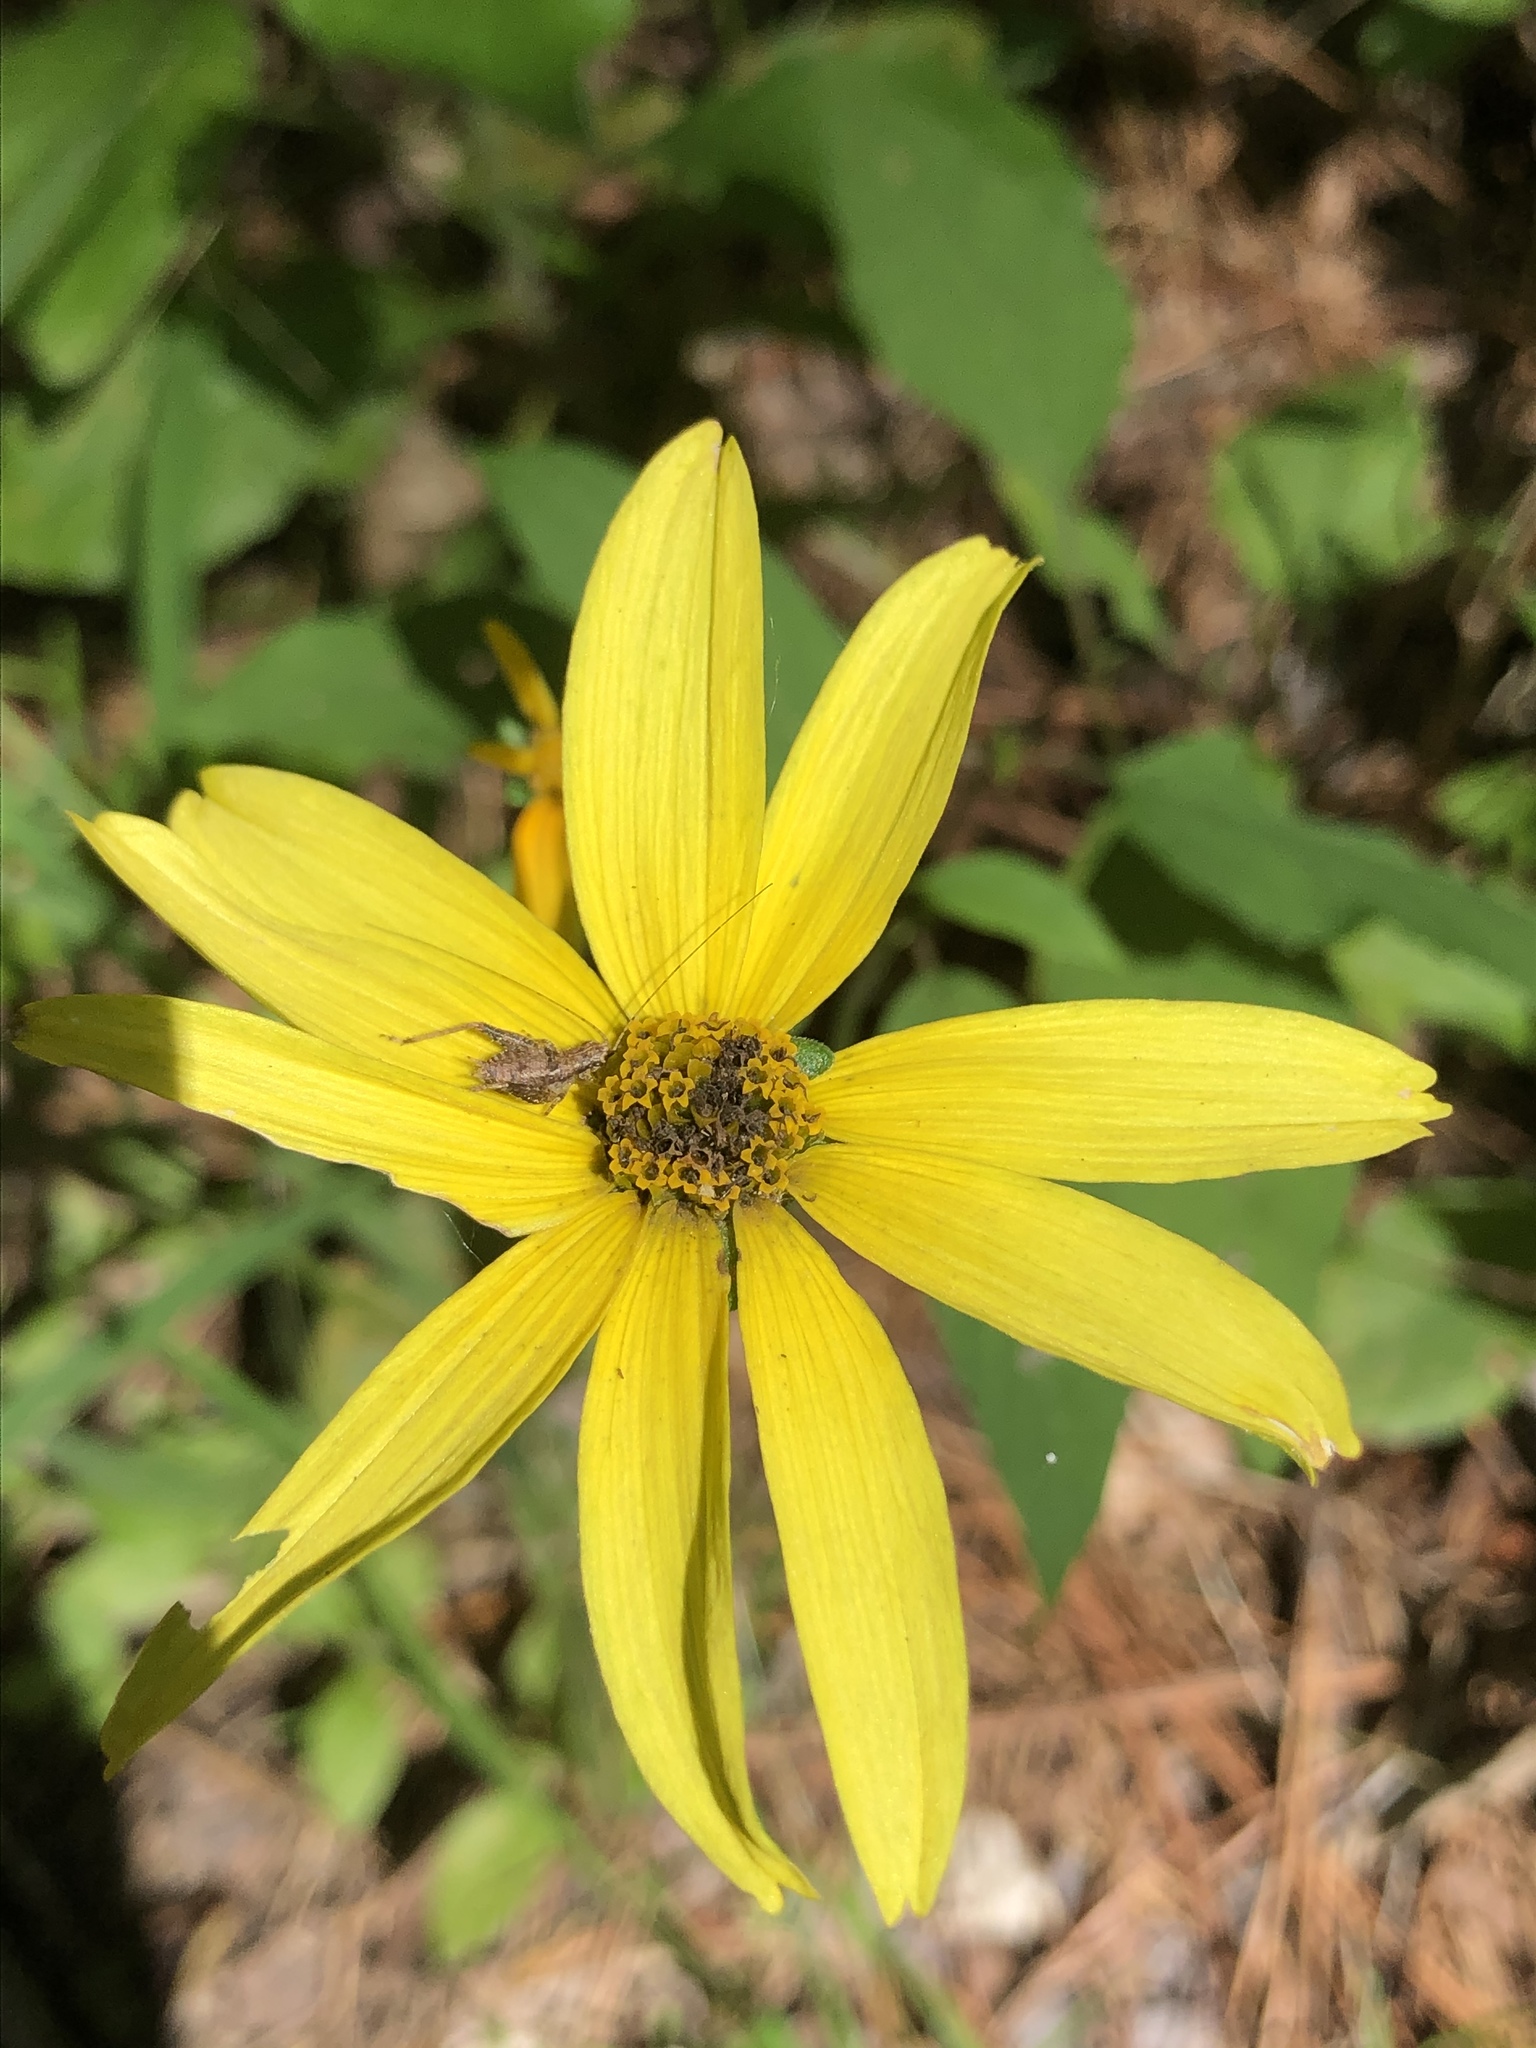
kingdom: Plantae
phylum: Tracheophyta
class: Magnoliopsida
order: Asterales
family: Asteraceae
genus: Heliopsis
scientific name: Heliopsis gracilis
